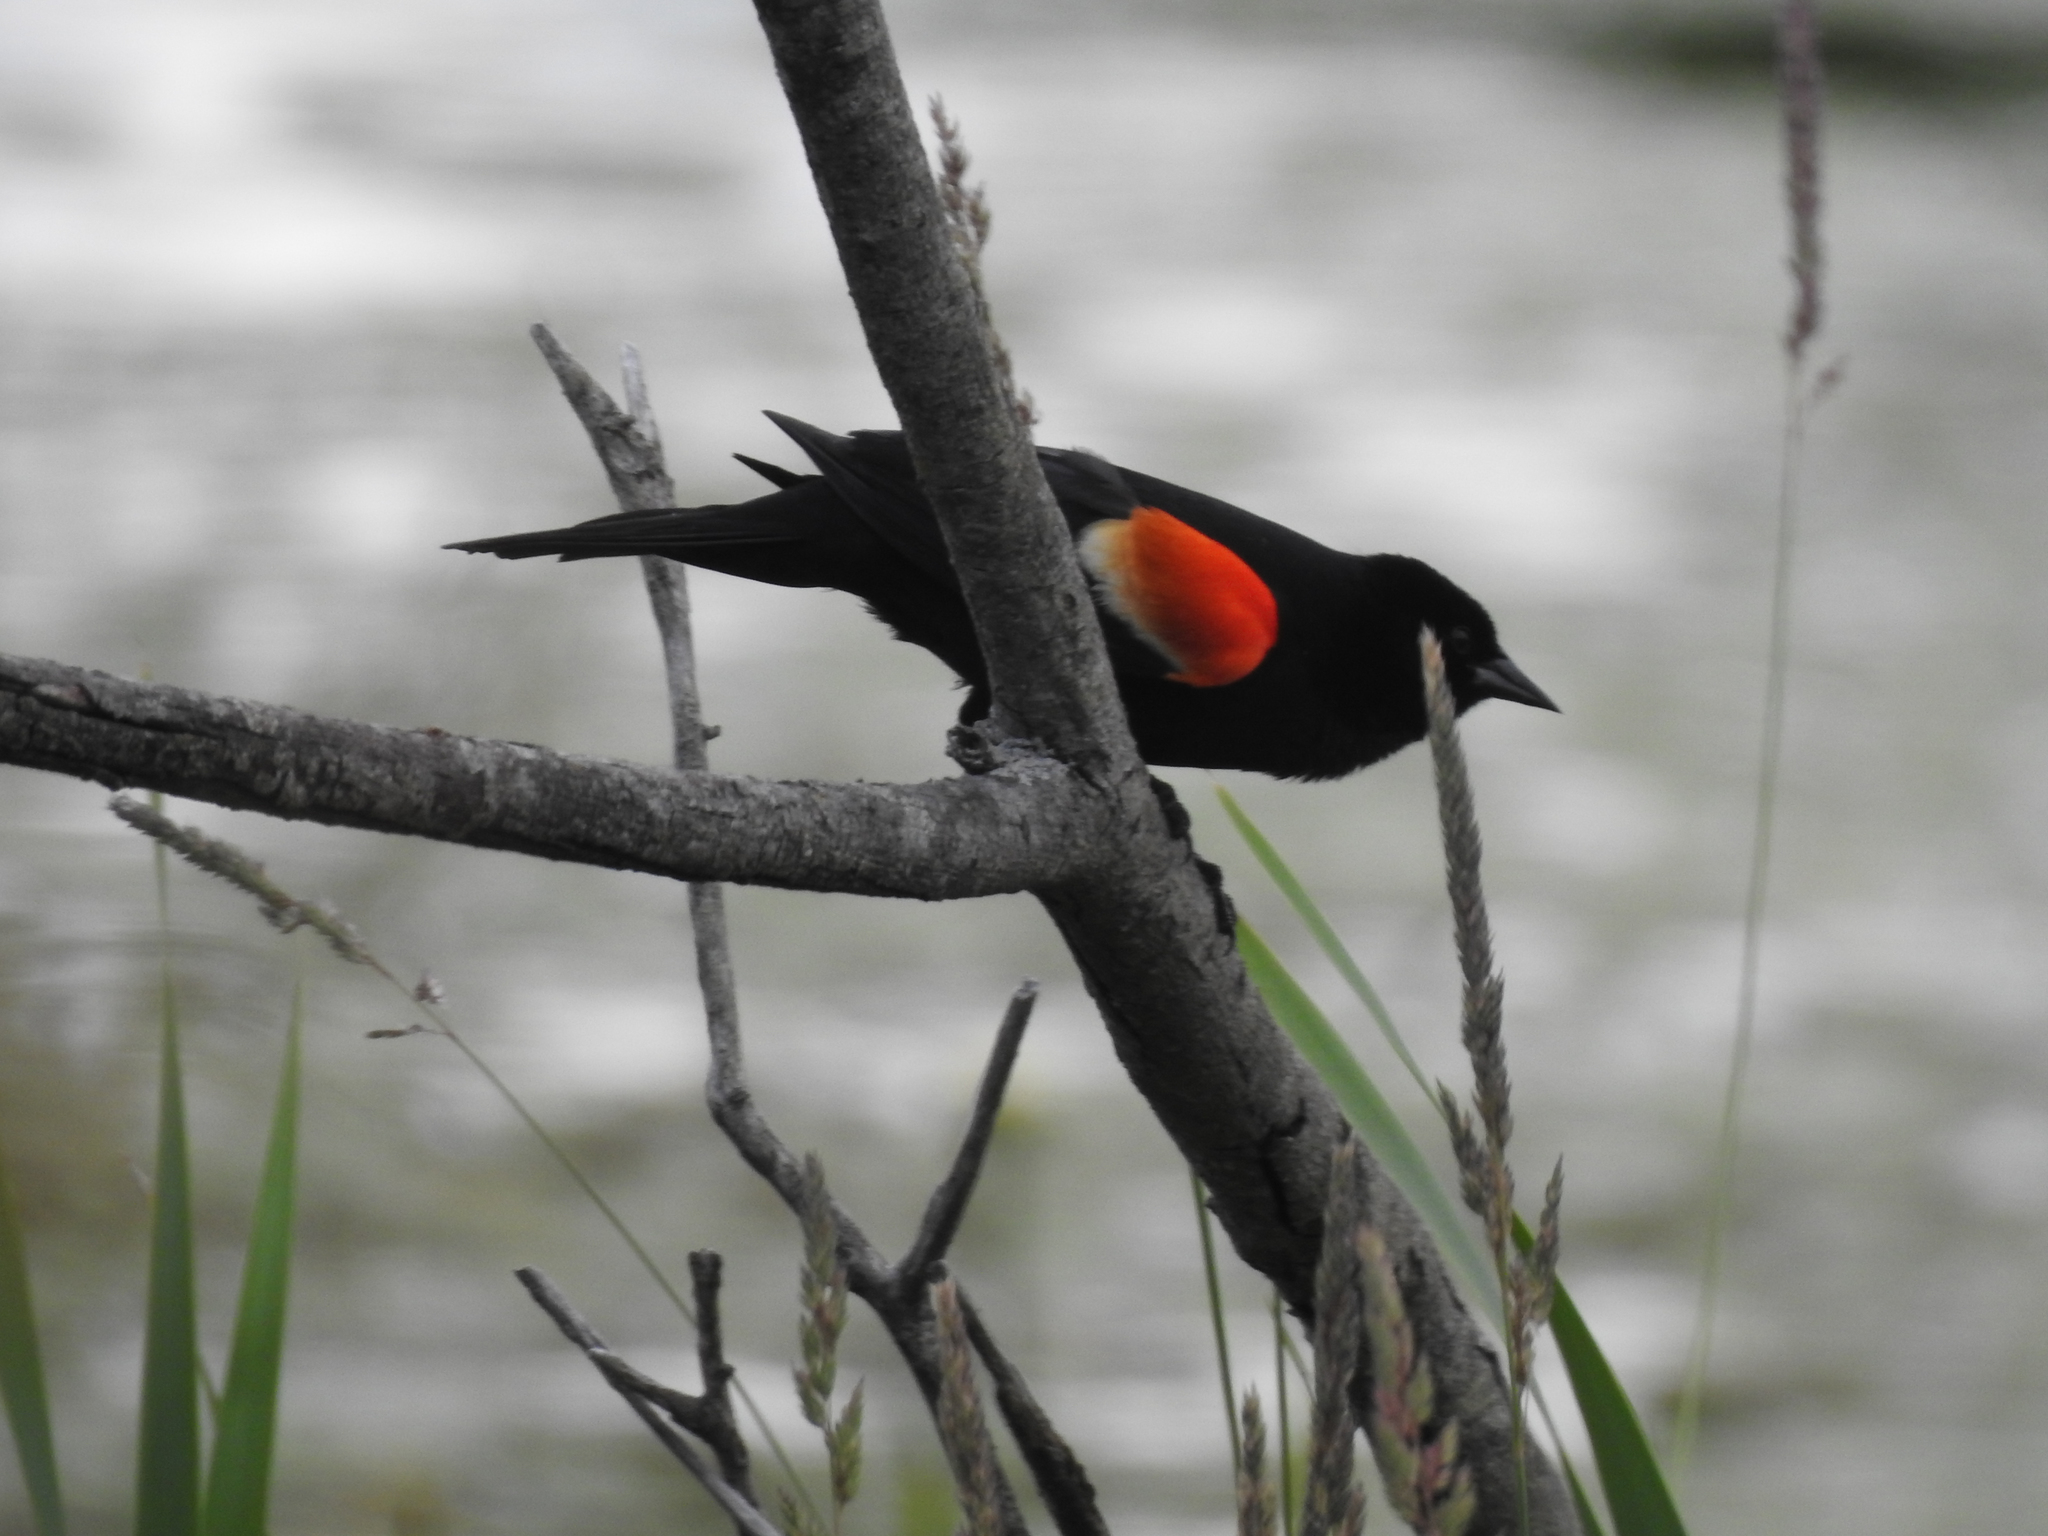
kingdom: Animalia
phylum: Chordata
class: Aves
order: Passeriformes
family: Icteridae
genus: Agelaius
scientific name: Agelaius phoeniceus
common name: Red-winged blackbird
